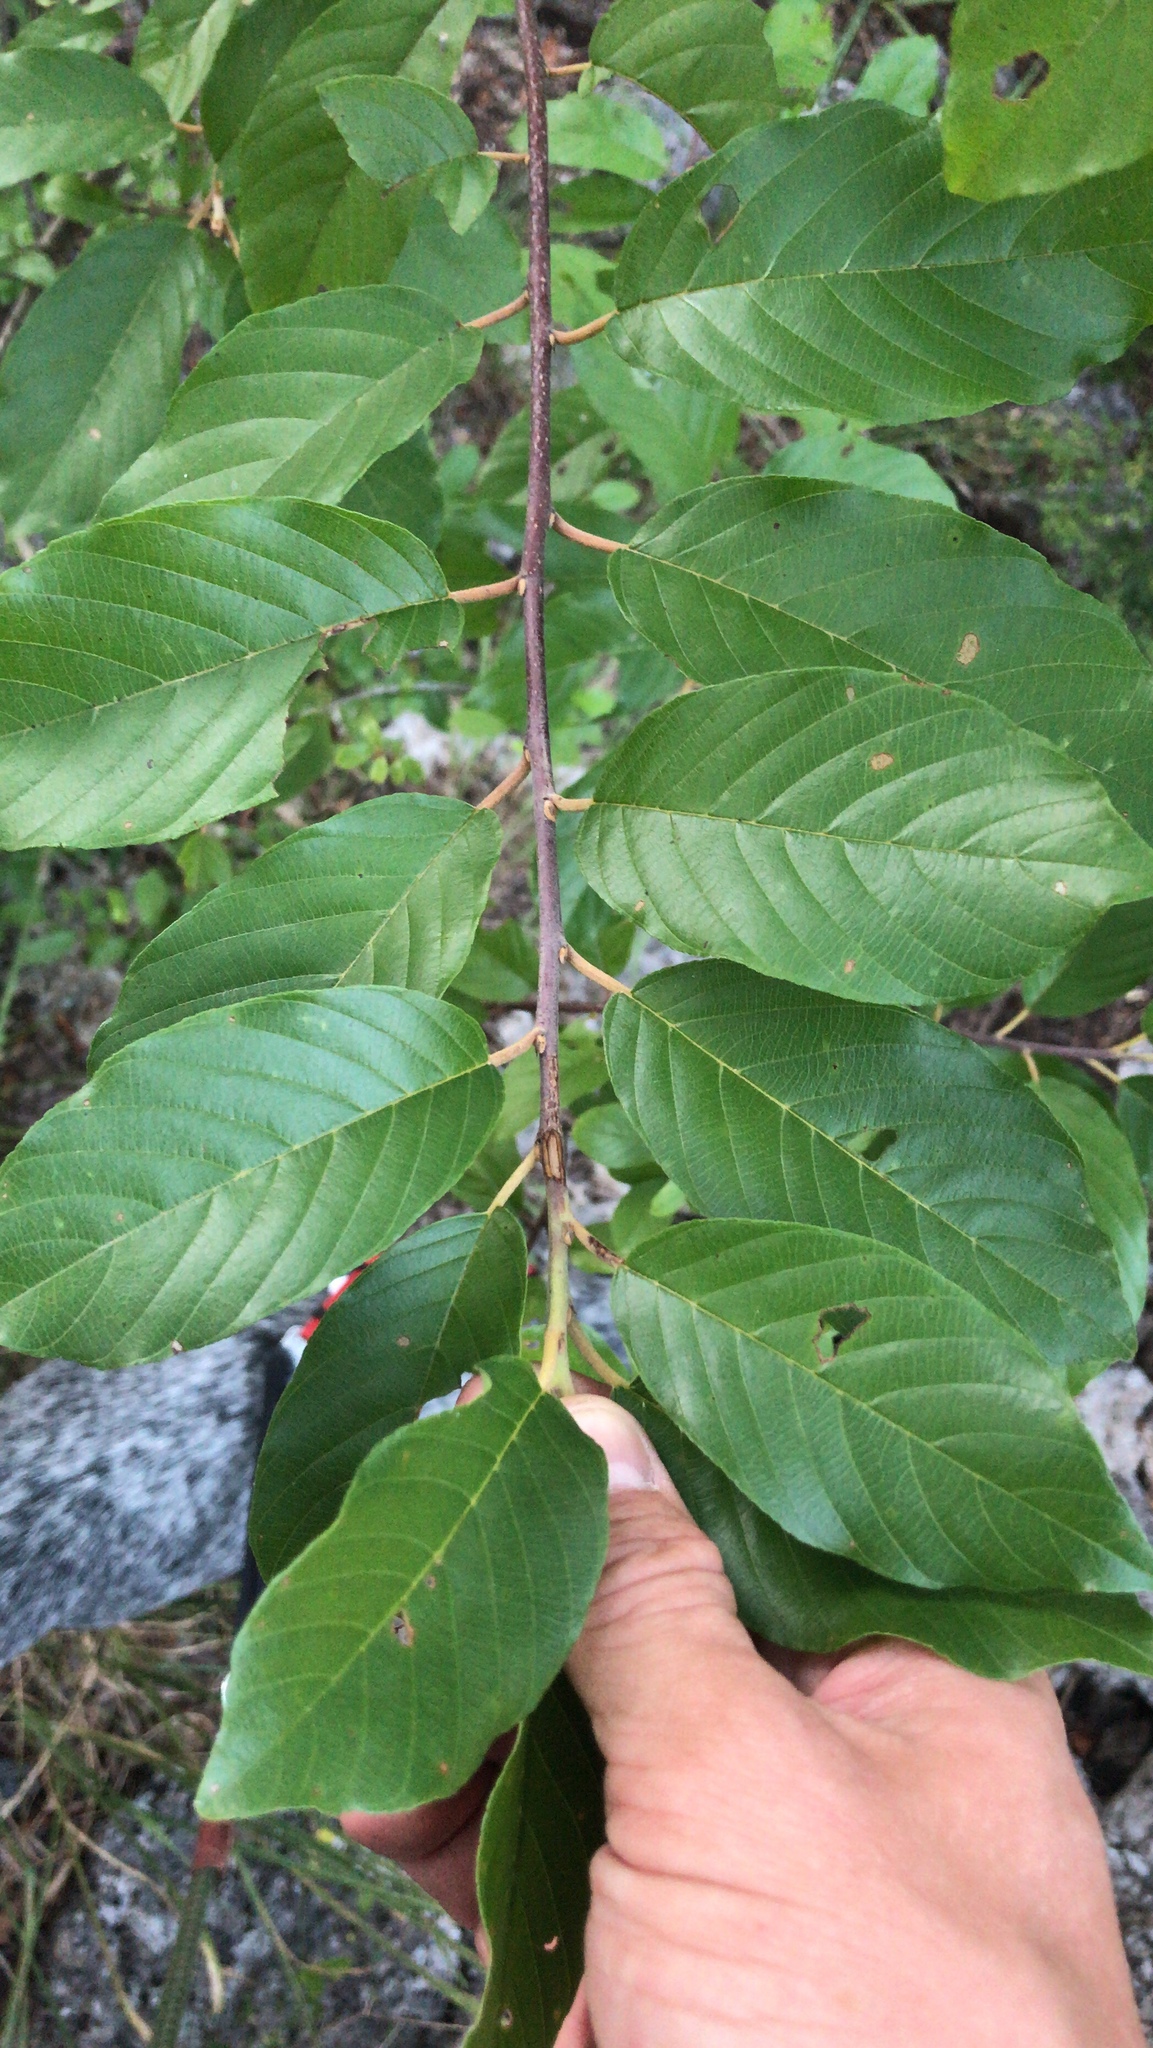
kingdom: Plantae
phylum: Tracheophyta
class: Magnoliopsida
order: Rosales
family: Rhamnaceae
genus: Frangula
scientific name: Frangula caroliniana
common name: Carolina buckthorn
